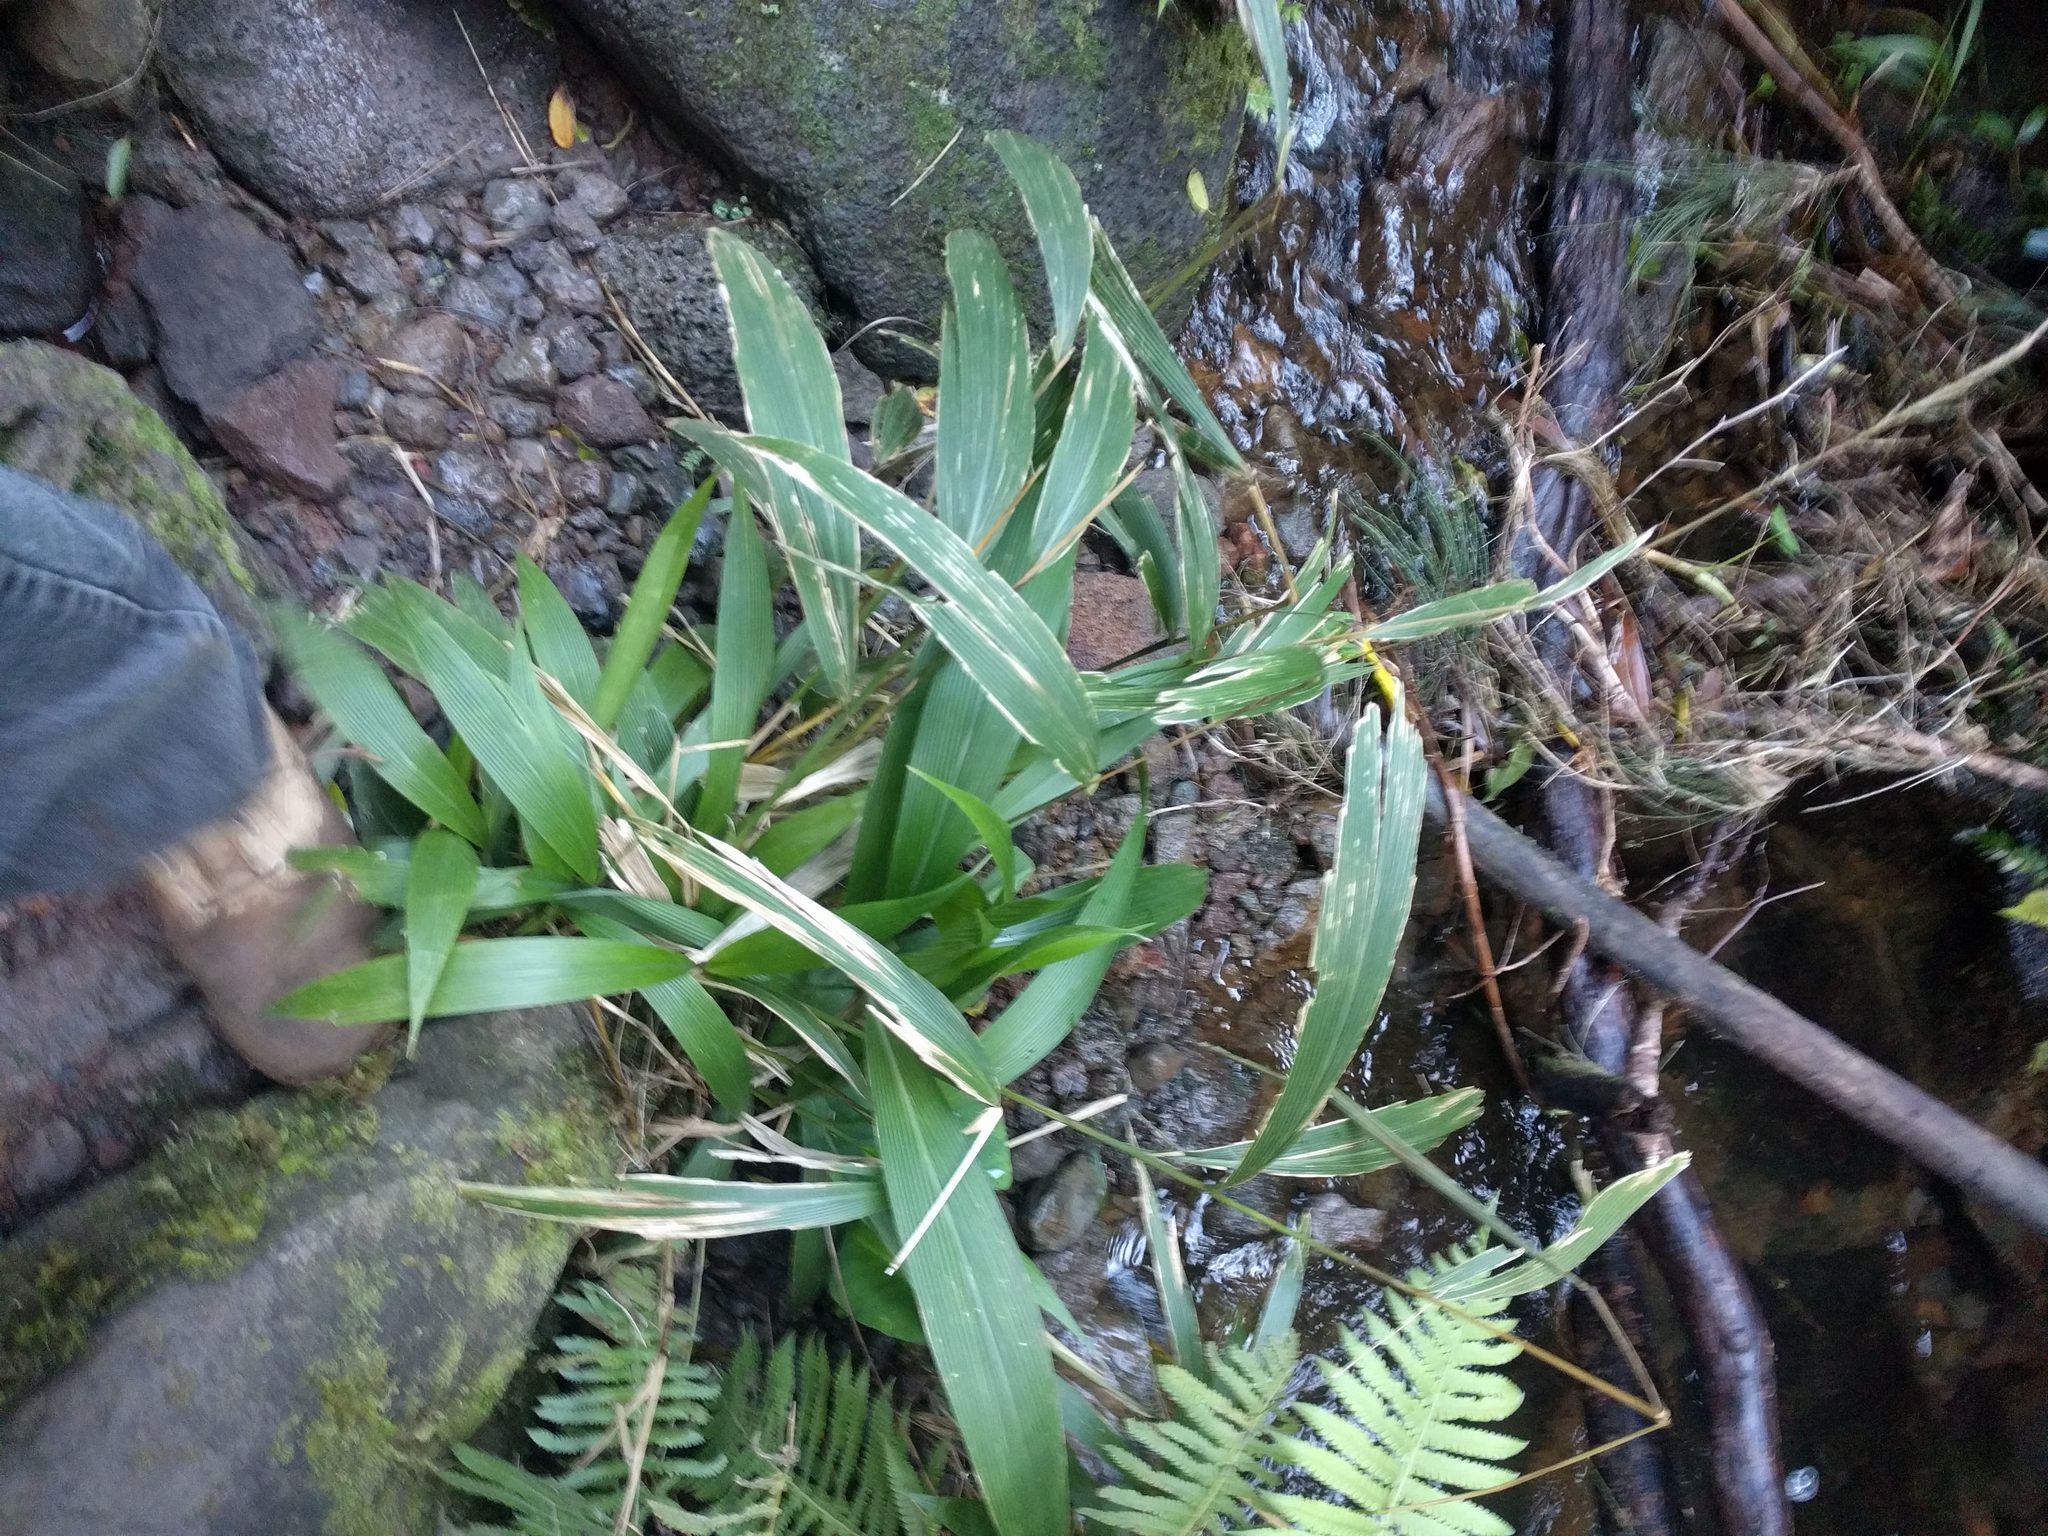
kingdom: Plantae
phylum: Tracheophyta
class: Liliopsida
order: Poales
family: Poaceae
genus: Setaria
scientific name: Setaria palmifolia
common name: Broadleaved bristlegrass
